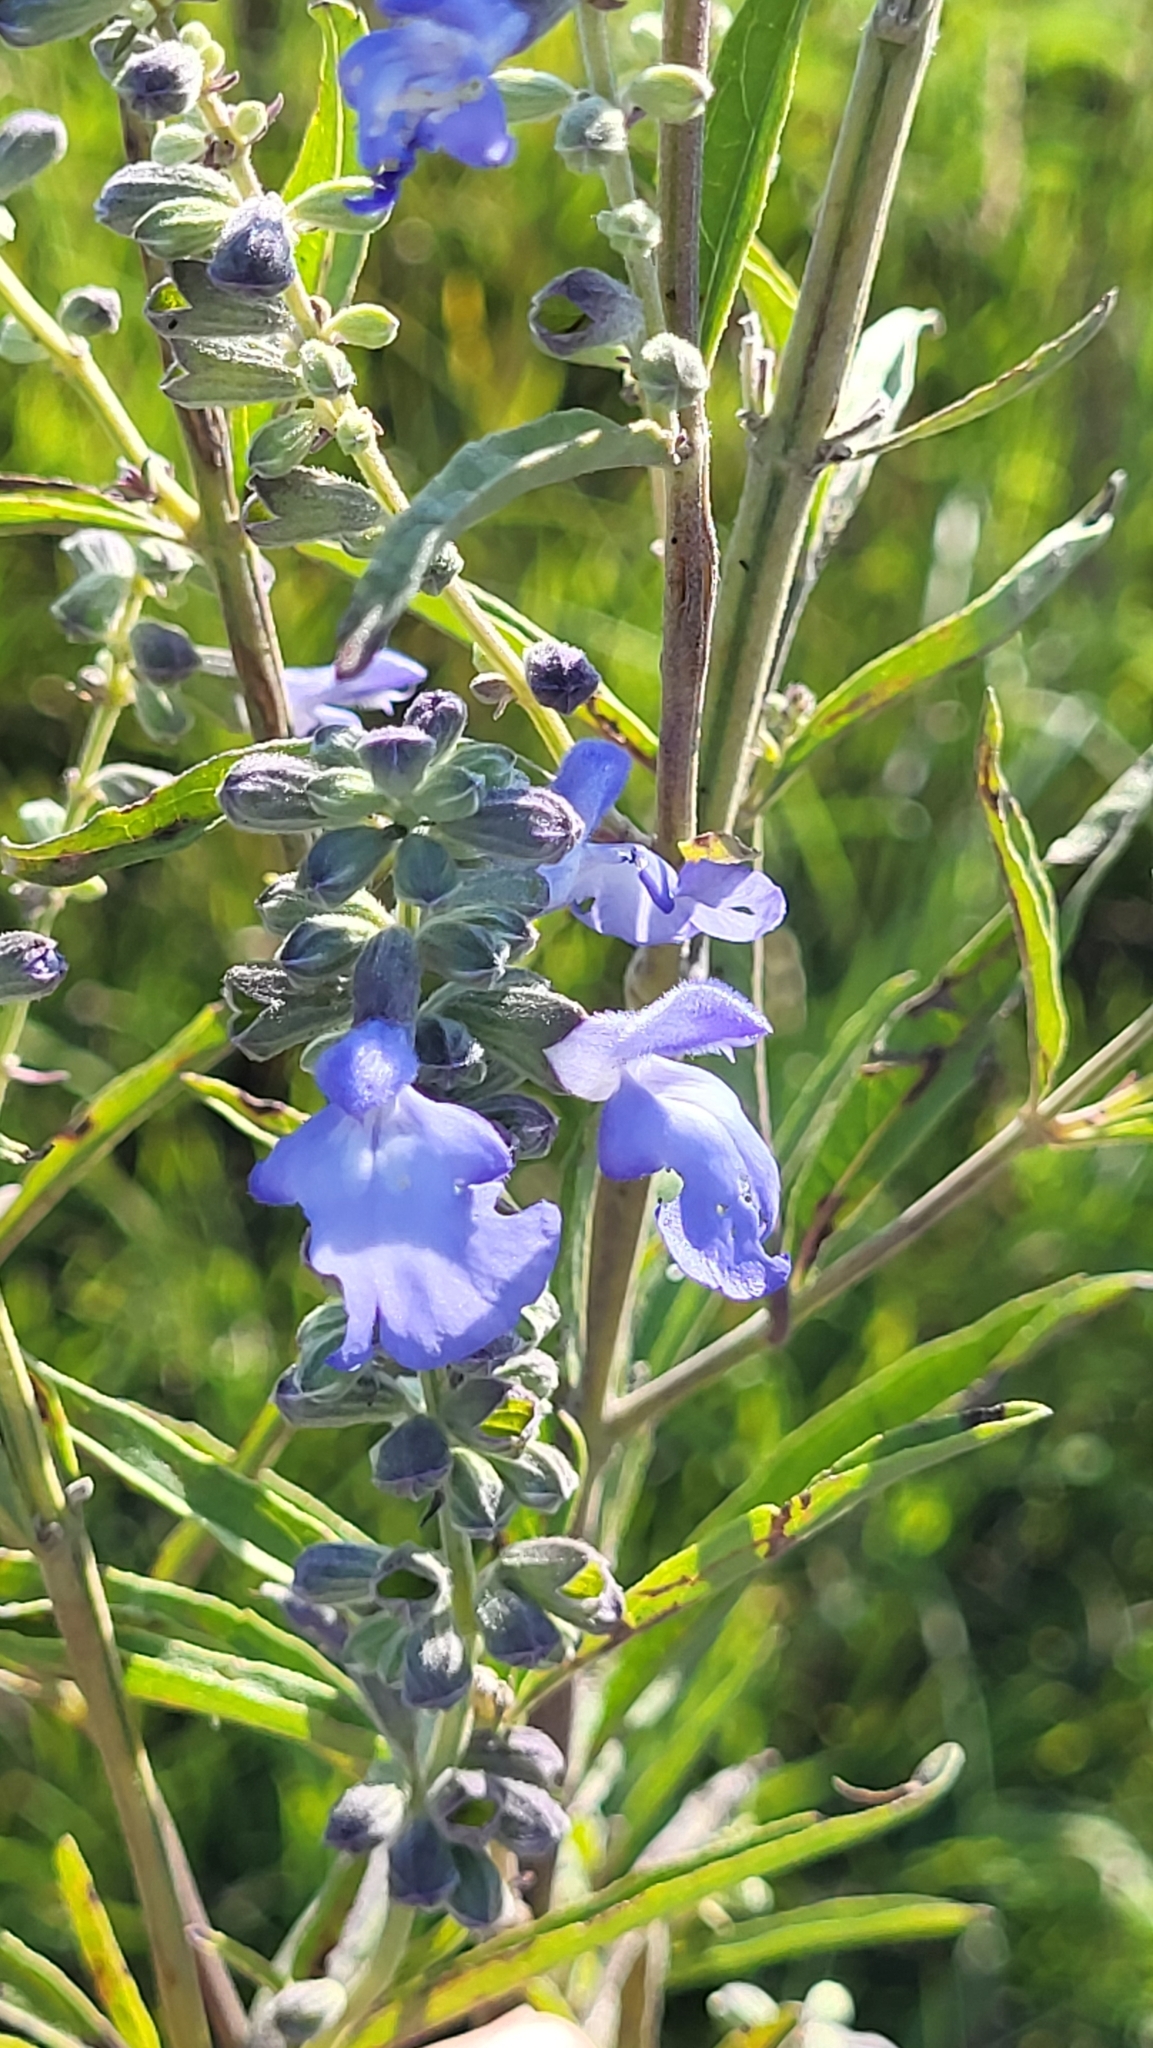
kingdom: Plantae
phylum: Tracheophyta
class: Magnoliopsida
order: Lamiales
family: Lamiaceae
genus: Salvia
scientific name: Salvia azurea
